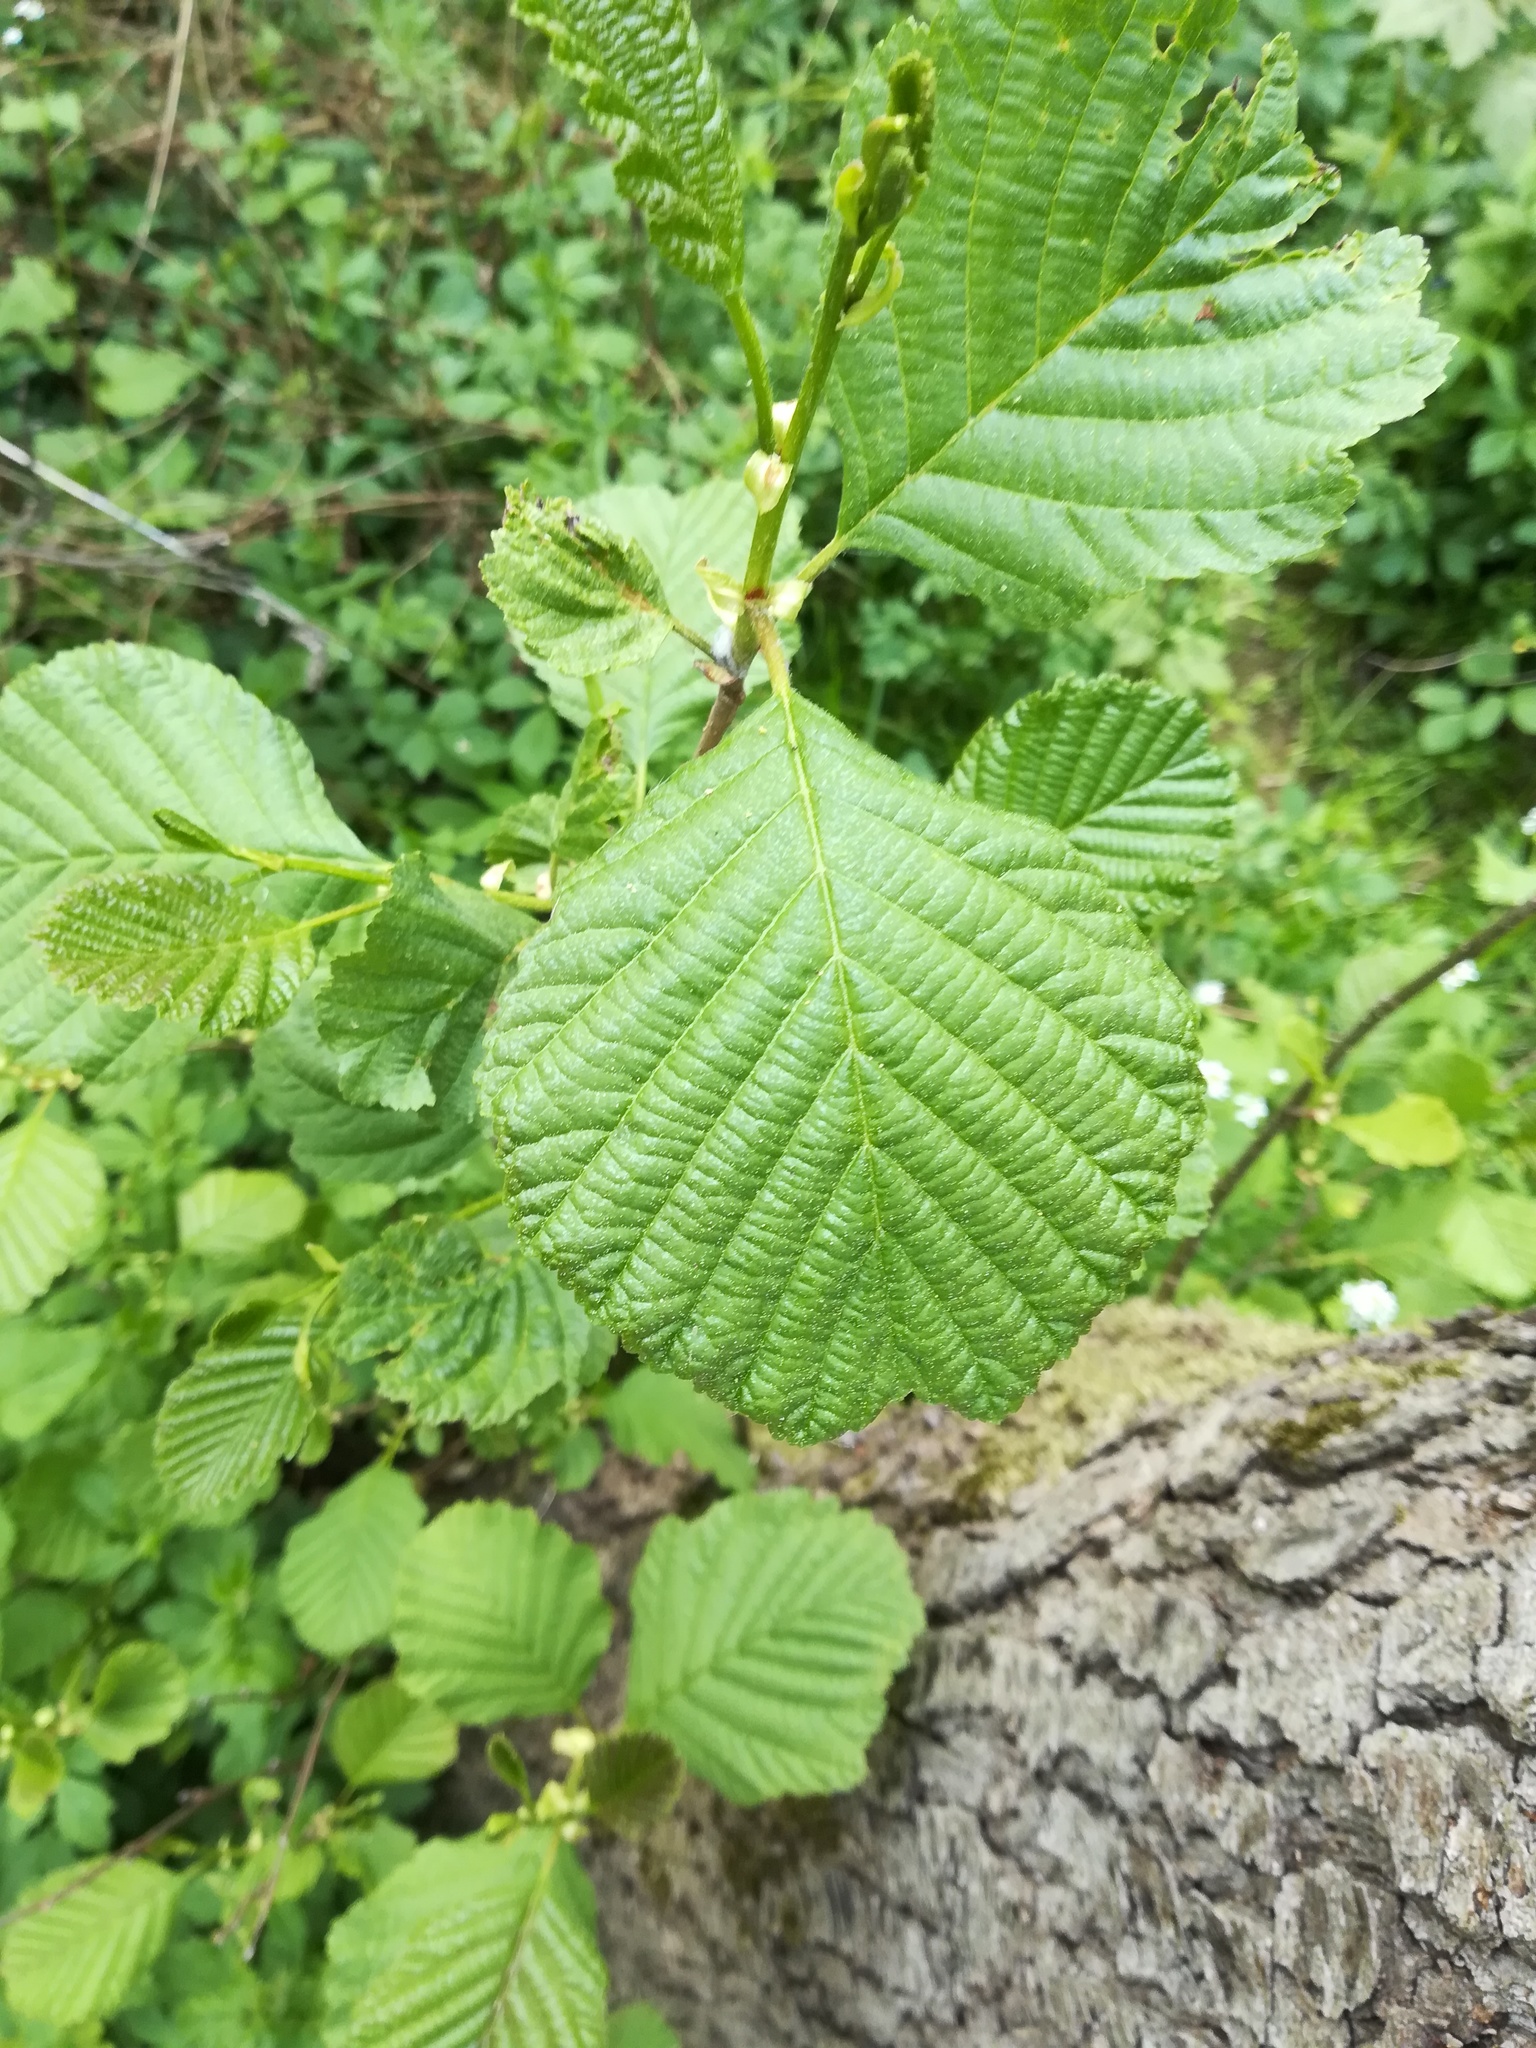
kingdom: Plantae
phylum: Tracheophyta
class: Magnoliopsida
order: Fagales
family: Betulaceae
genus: Alnus
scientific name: Alnus glutinosa
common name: Black alder
